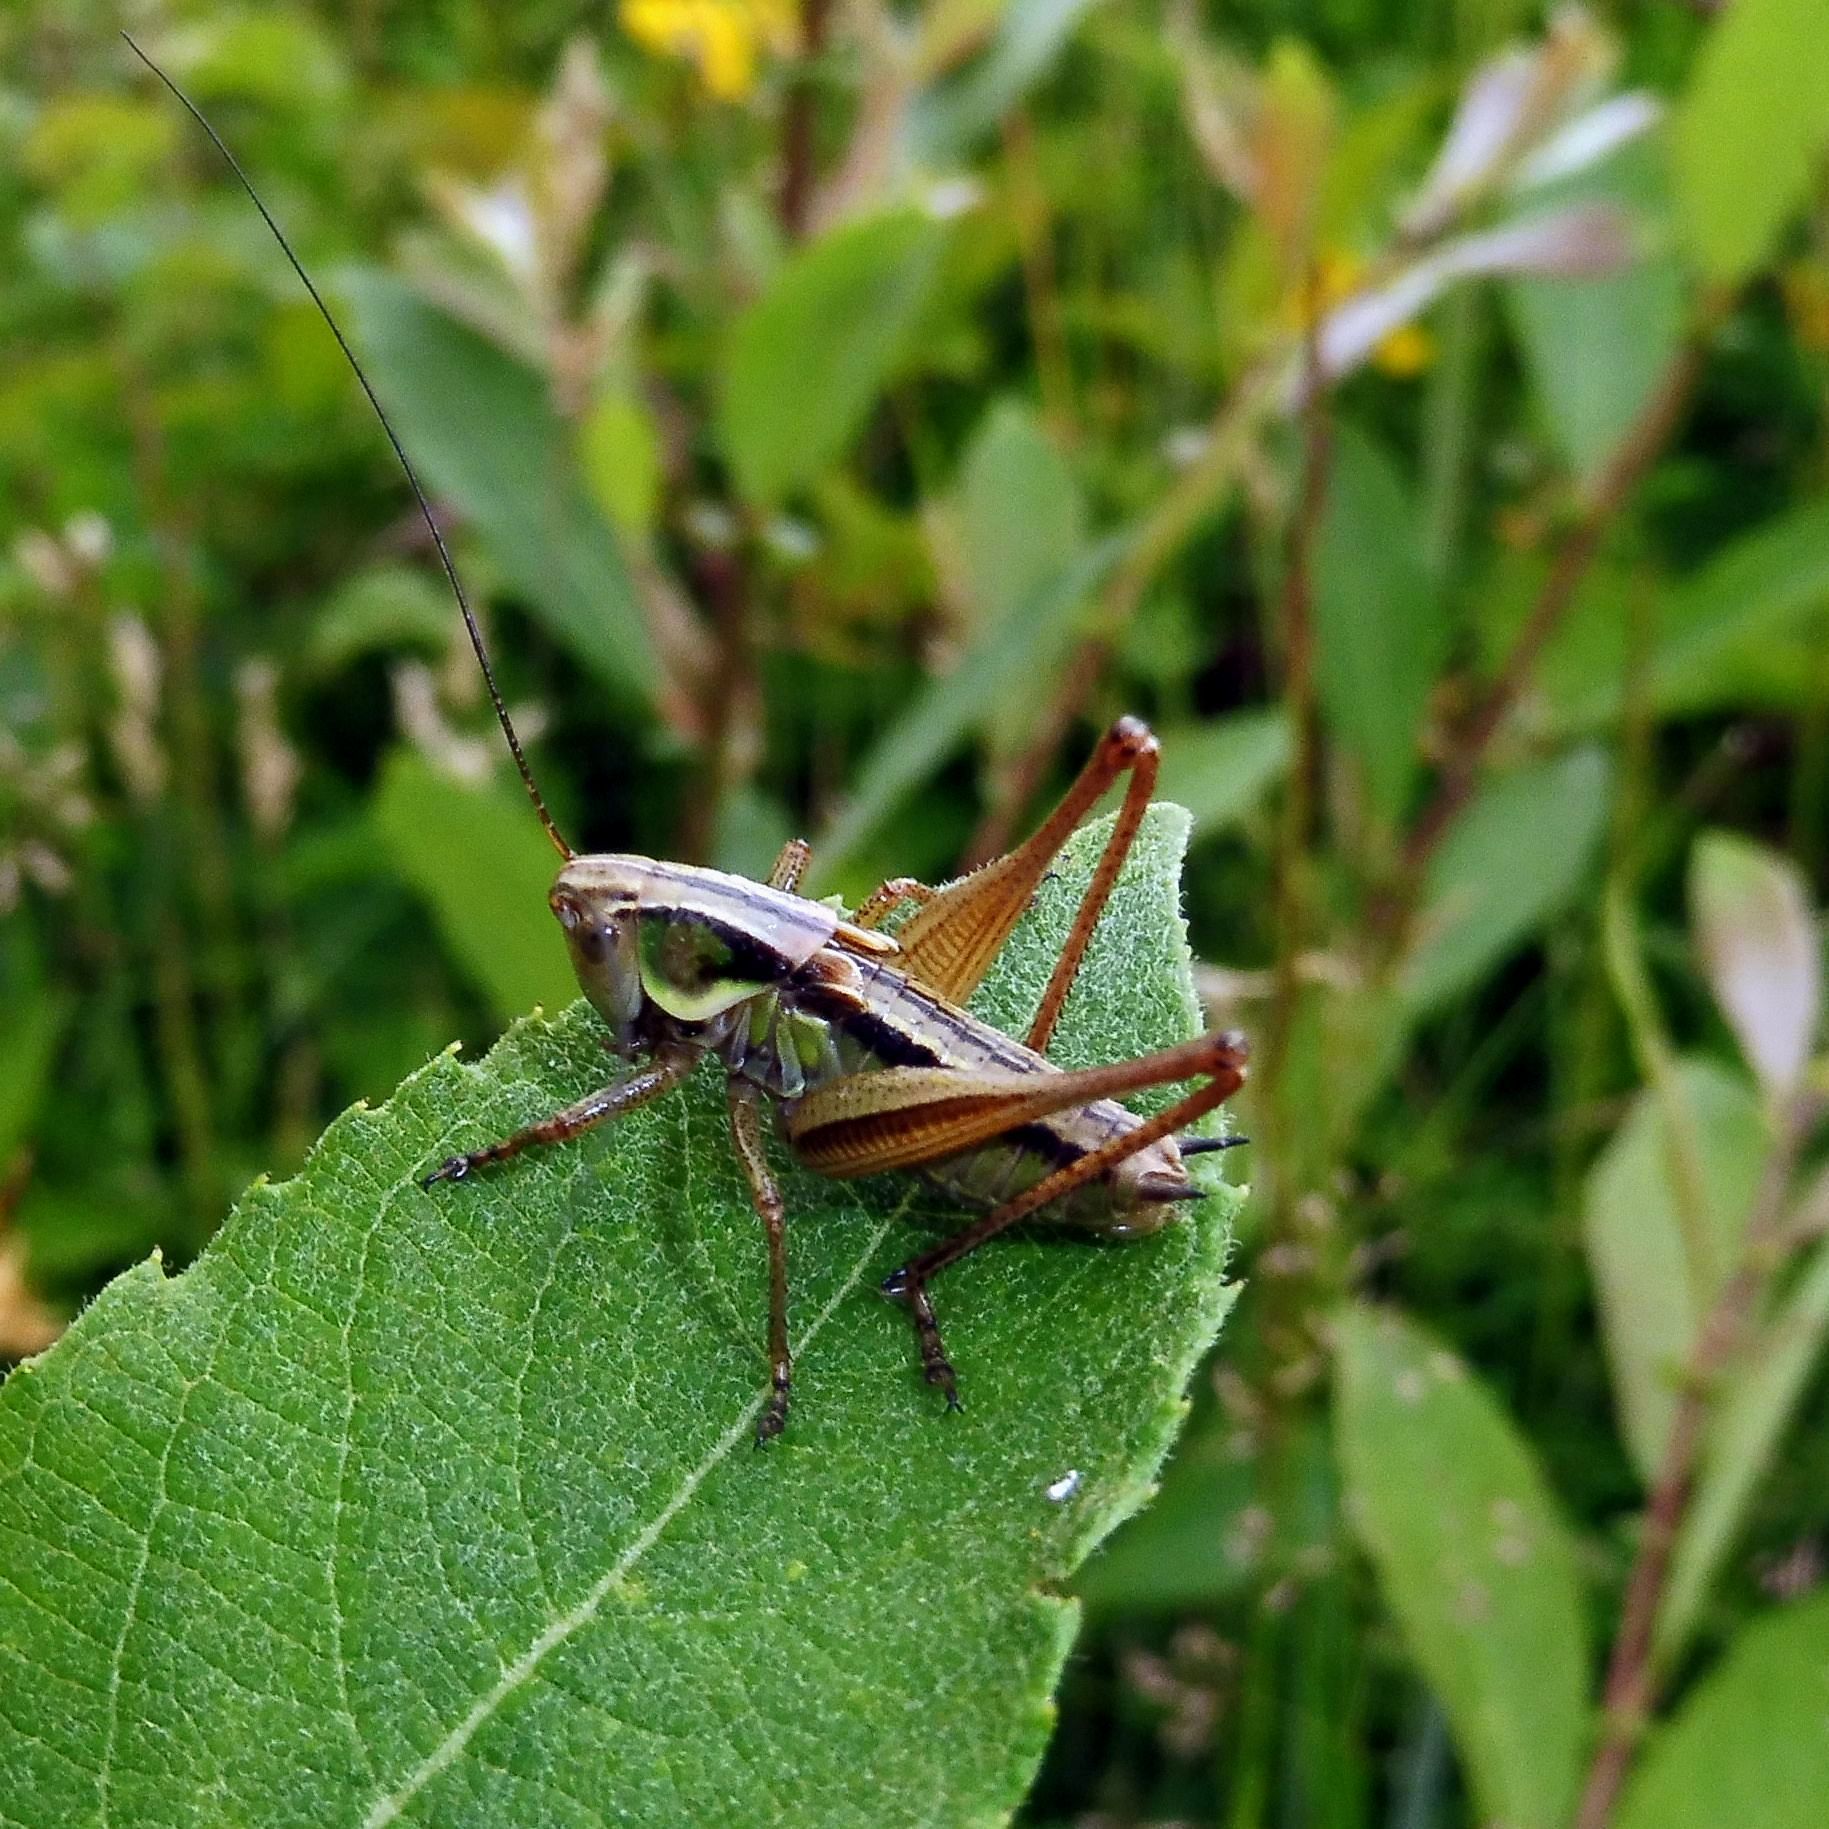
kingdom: Animalia
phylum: Arthropoda
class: Insecta
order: Orthoptera
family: Tettigoniidae
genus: Roeseliana
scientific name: Roeseliana roeselii
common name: Roesel's bush cricket
